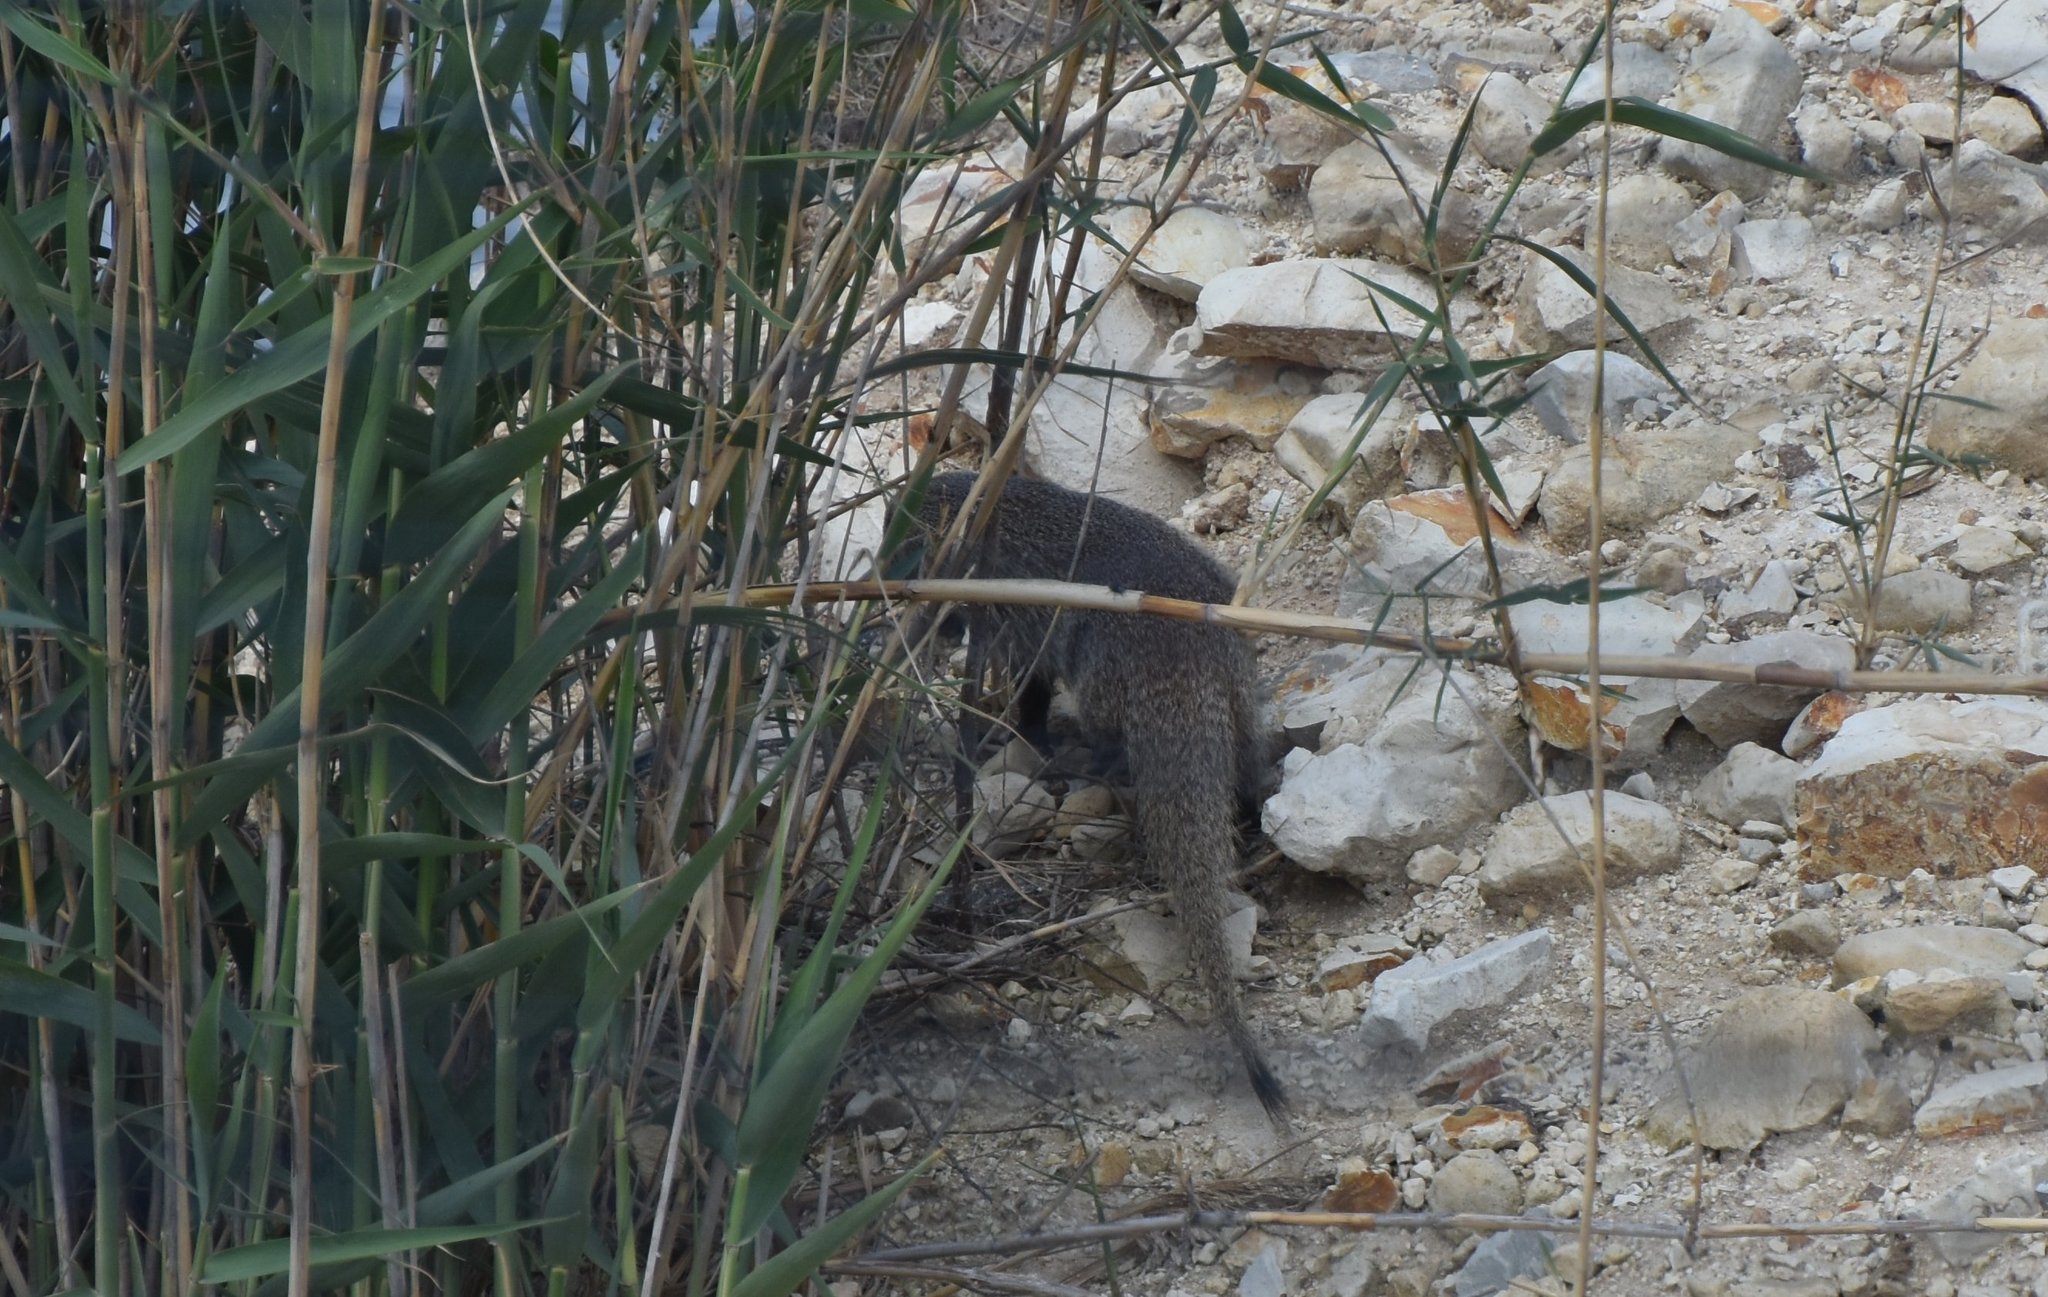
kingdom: Animalia
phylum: Chordata
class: Mammalia
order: Carnivora
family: Herpestidae
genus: Herpestes
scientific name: Herpestes ichneumon
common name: Egyptian mongoose
